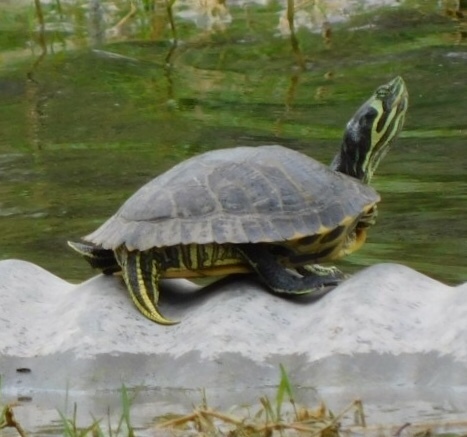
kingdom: Animalia
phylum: Chordata
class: Testudines
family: Emydidae
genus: Trachemys
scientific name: Trachemys scripta
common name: Slider
